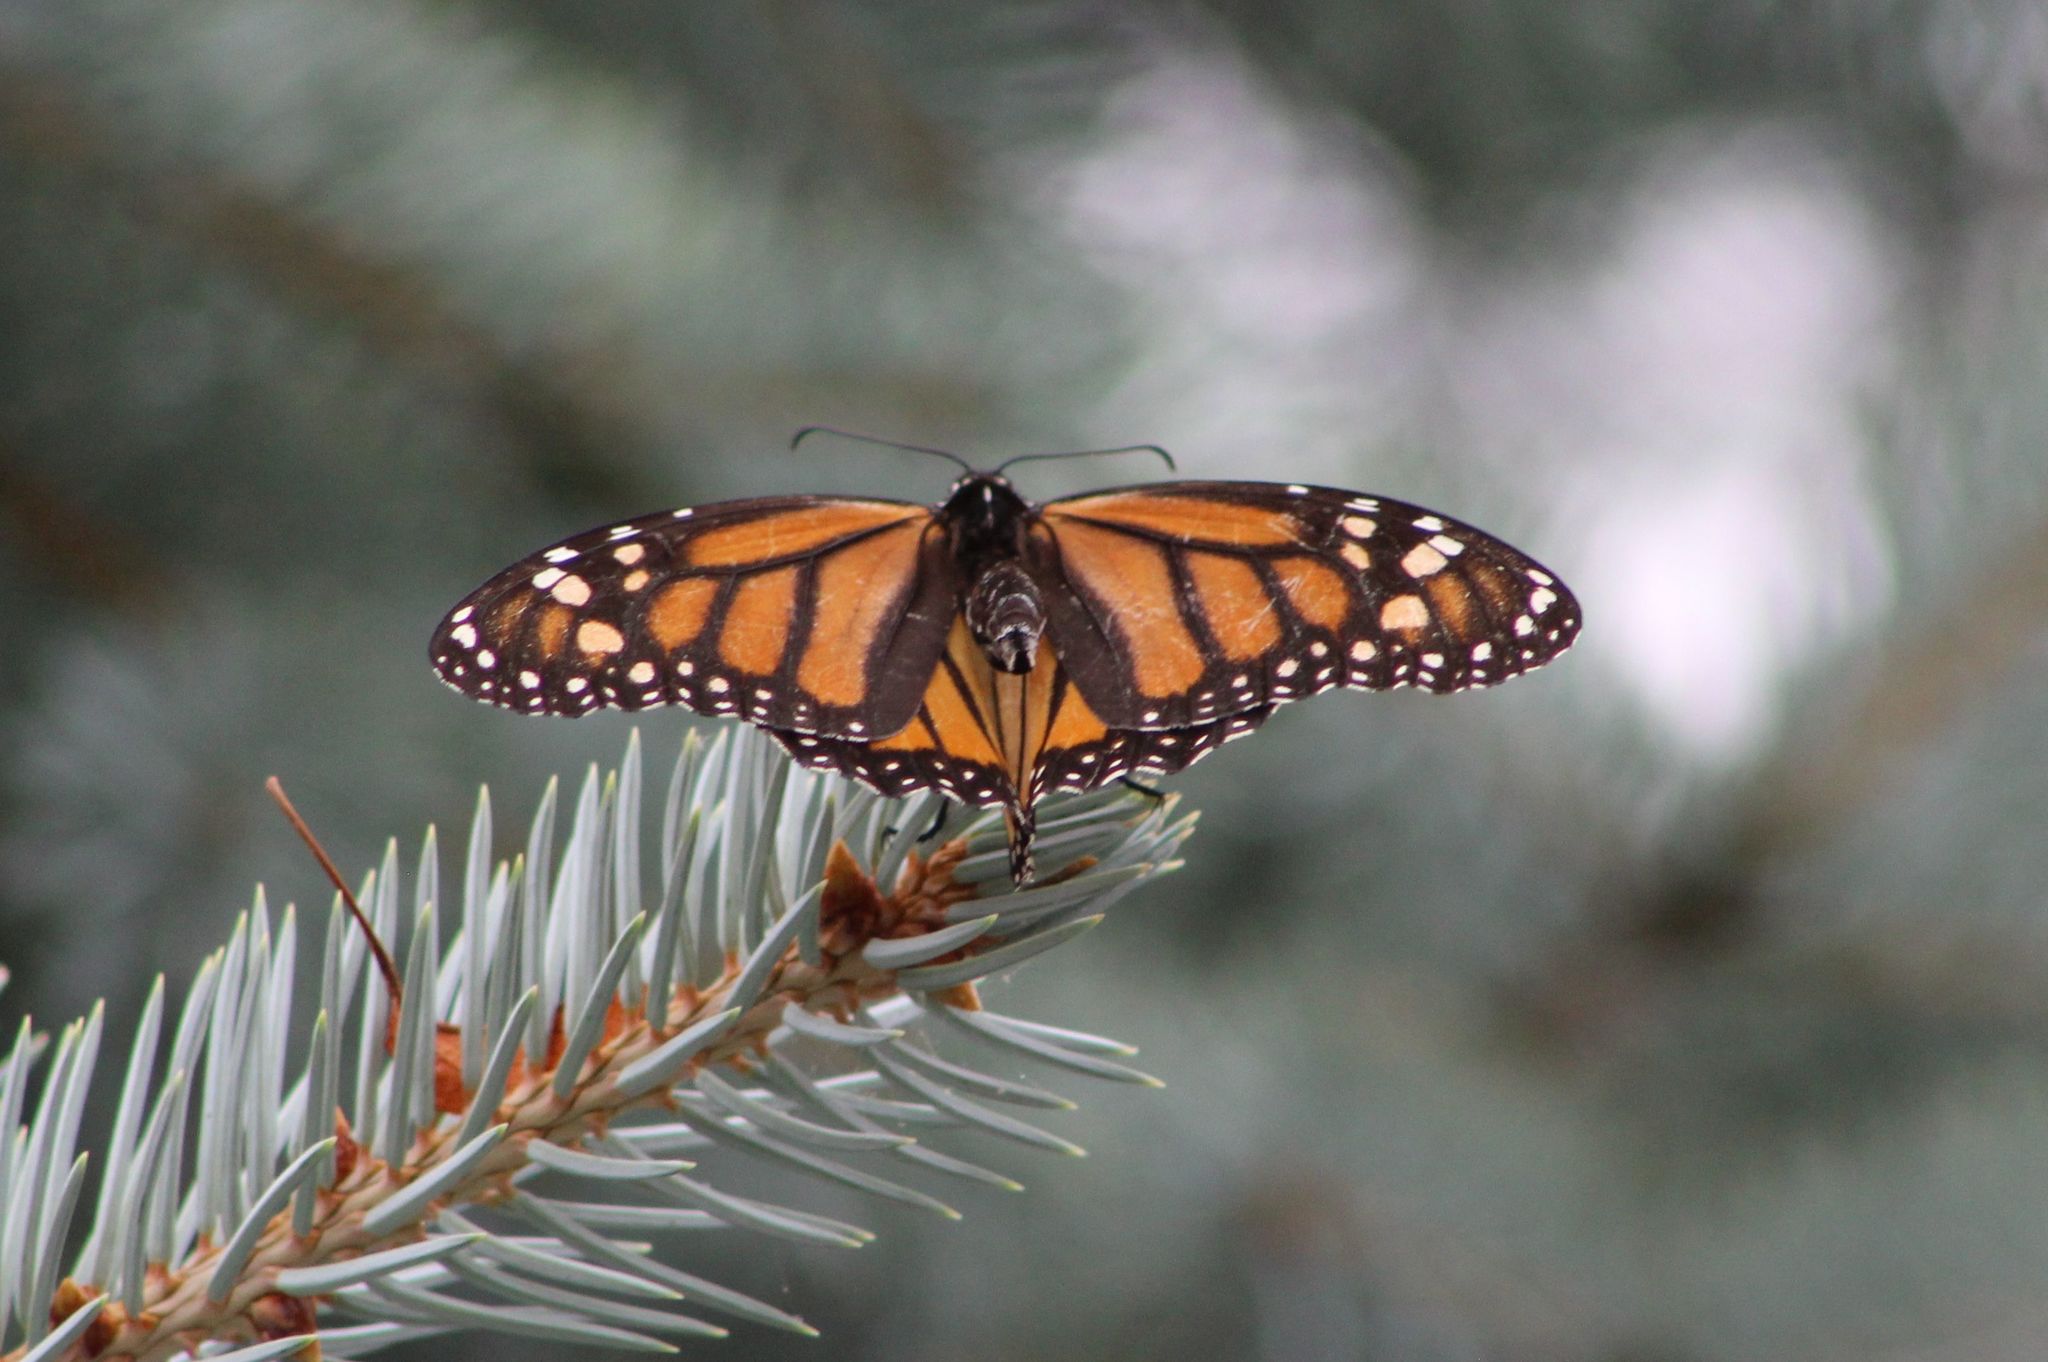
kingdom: Animalia
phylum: Arthropoda
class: Insecta
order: Lepidoptera
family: Nymphalidae
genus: Danaus
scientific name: Danaus plexippus
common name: Monarch
